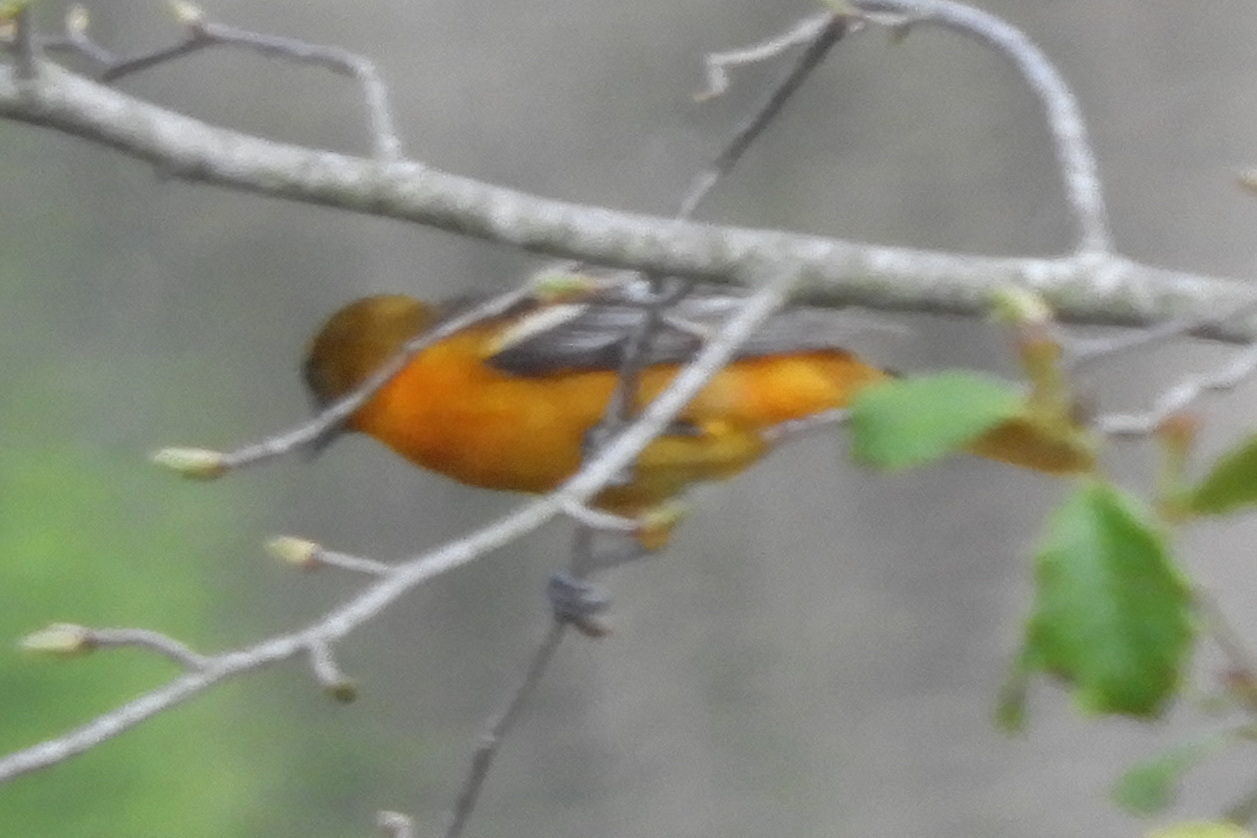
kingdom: Animalia
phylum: Chordata
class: Aves
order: Passeriformes
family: Icteridae
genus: Icterus
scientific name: Icterus galbula
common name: Baltimore oriole
